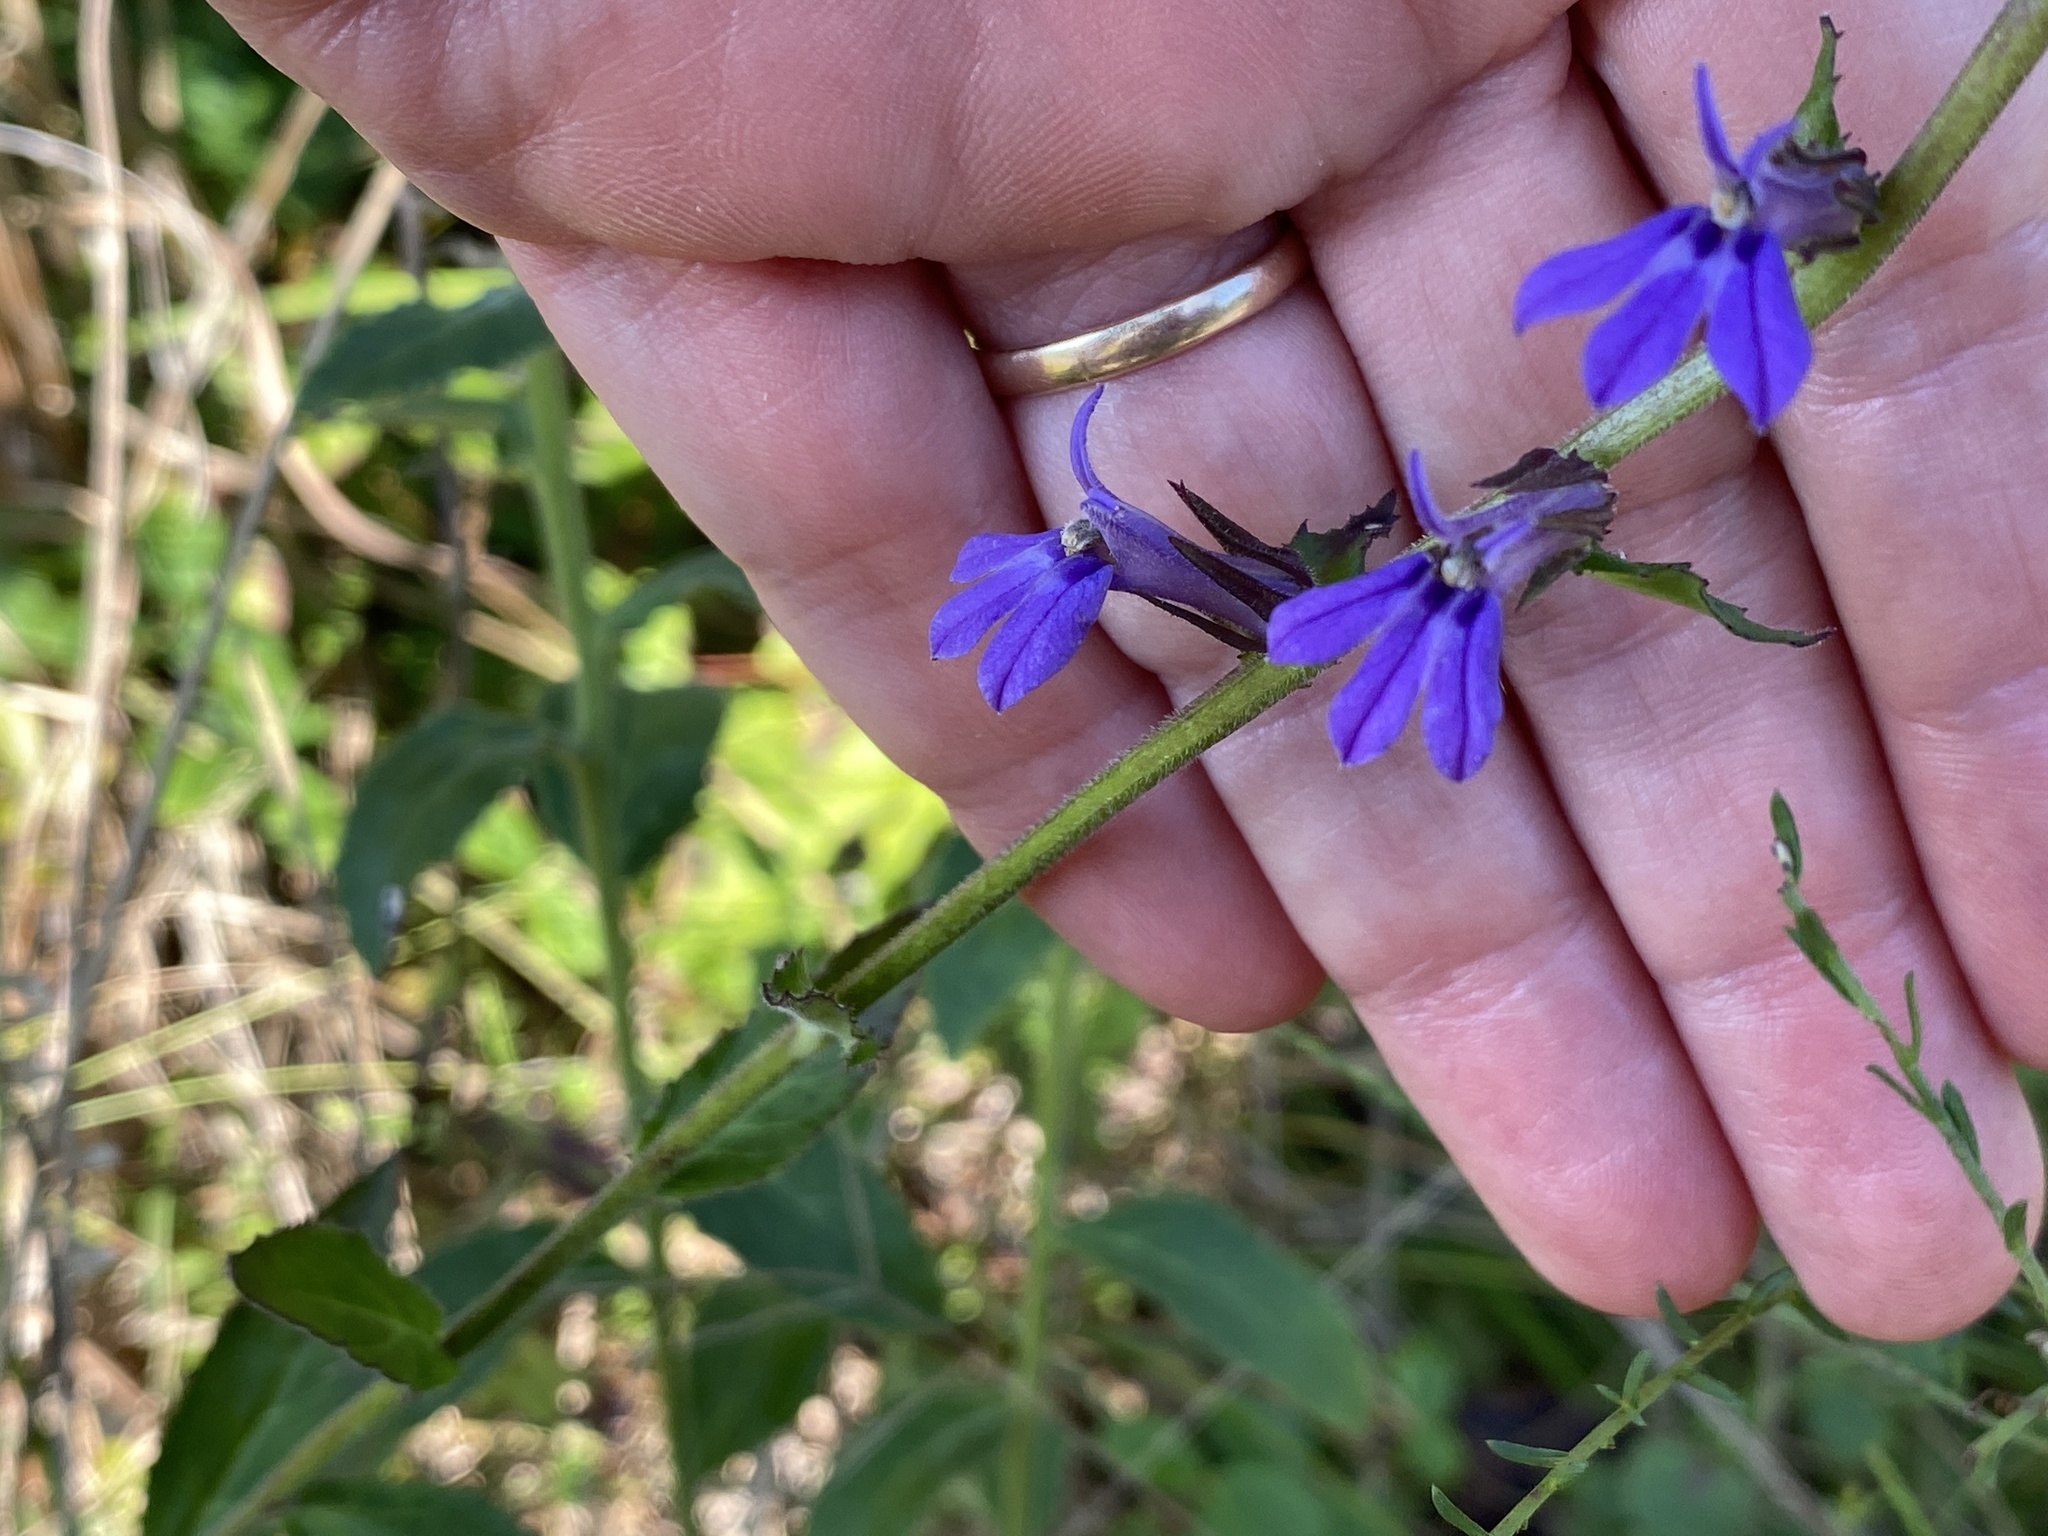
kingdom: Plantae
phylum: Tracheophyta
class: Magnoliopsida
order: Asterales
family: Campanulaceae
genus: Lobelia
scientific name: Lobelia puberula
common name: Purple dewdrop
